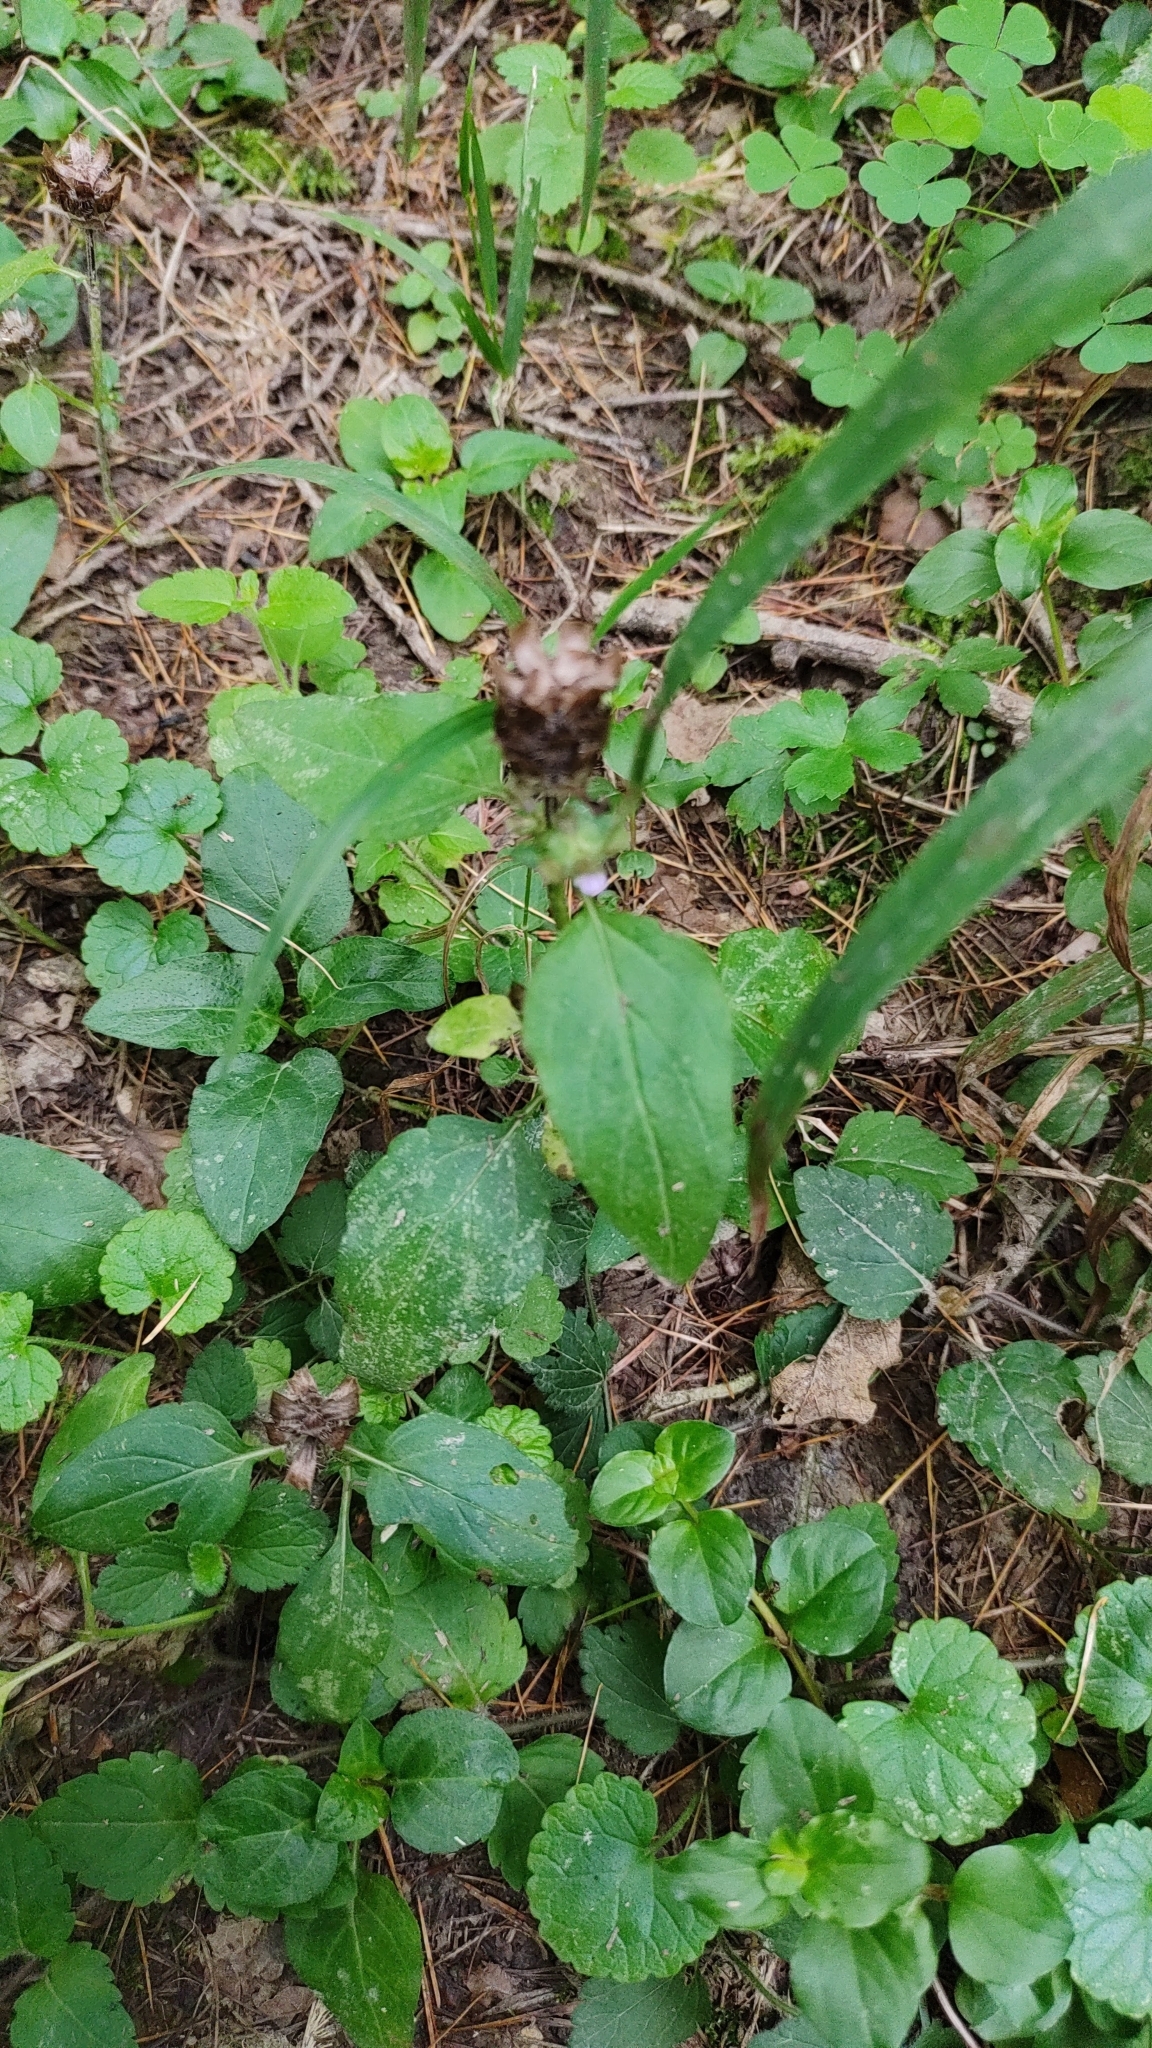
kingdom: Plantae
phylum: Tracheophyta
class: Magnoliopsida
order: Lamiales
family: Lamiaceae
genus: Prunella
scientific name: Prunella vulgaris
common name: Heal-all
